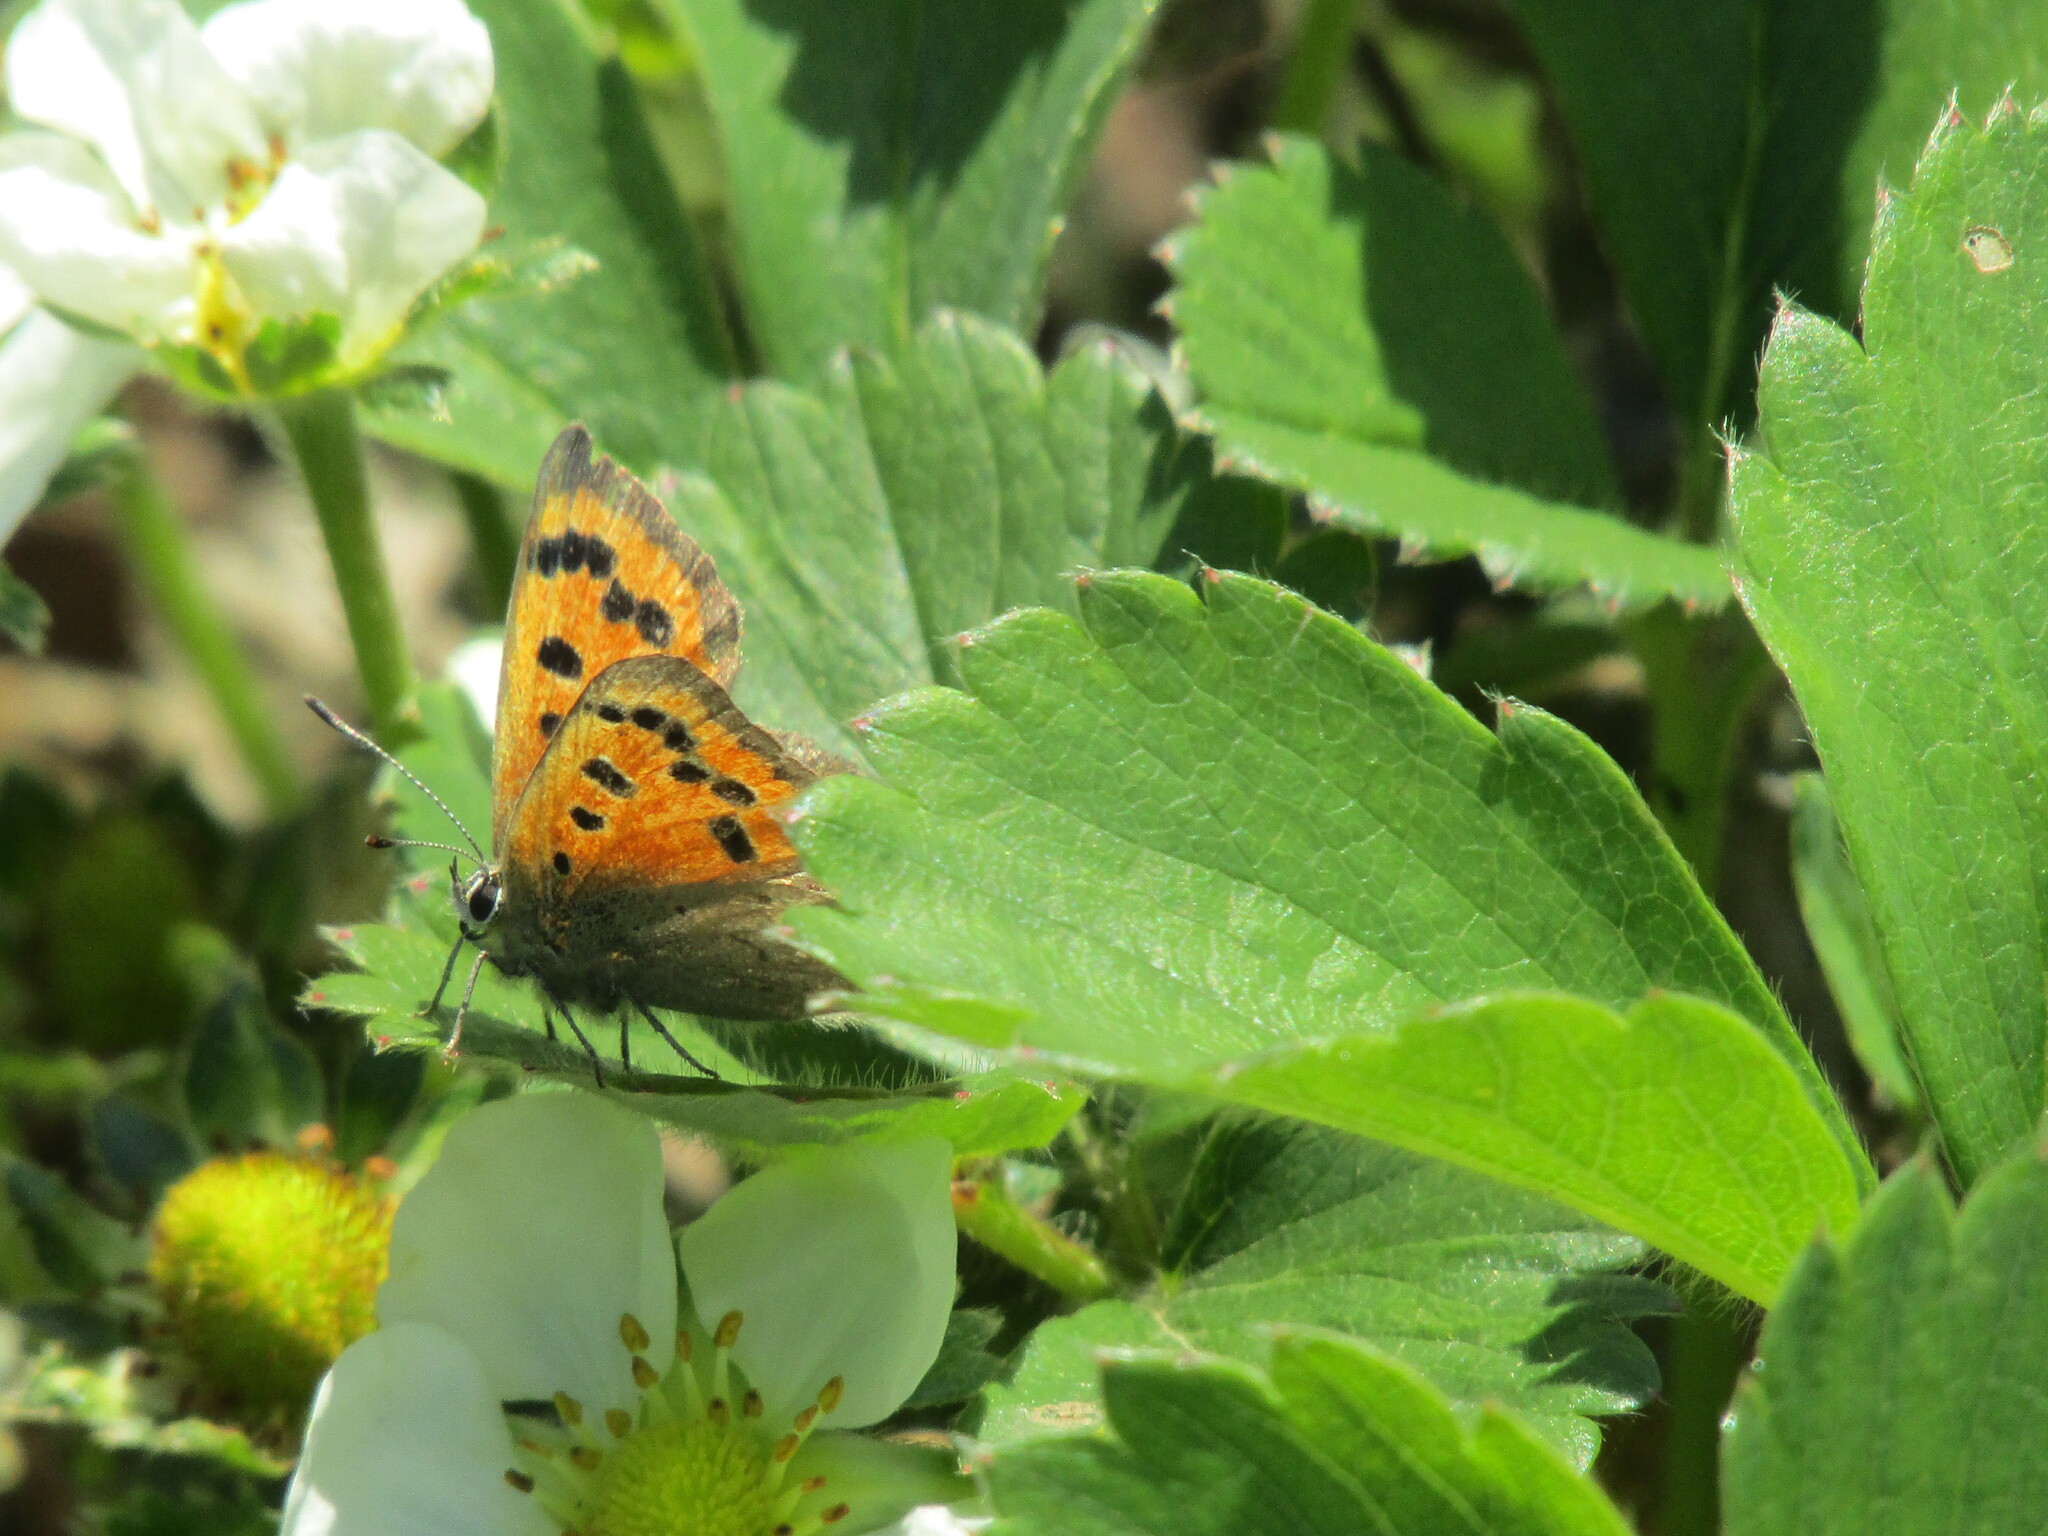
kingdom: Animalia
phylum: Arthropoda
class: Insecta
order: Lepidoptera
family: Lycaenidae
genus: Lycaena
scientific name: Lycaena phlaeas
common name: Small copper
